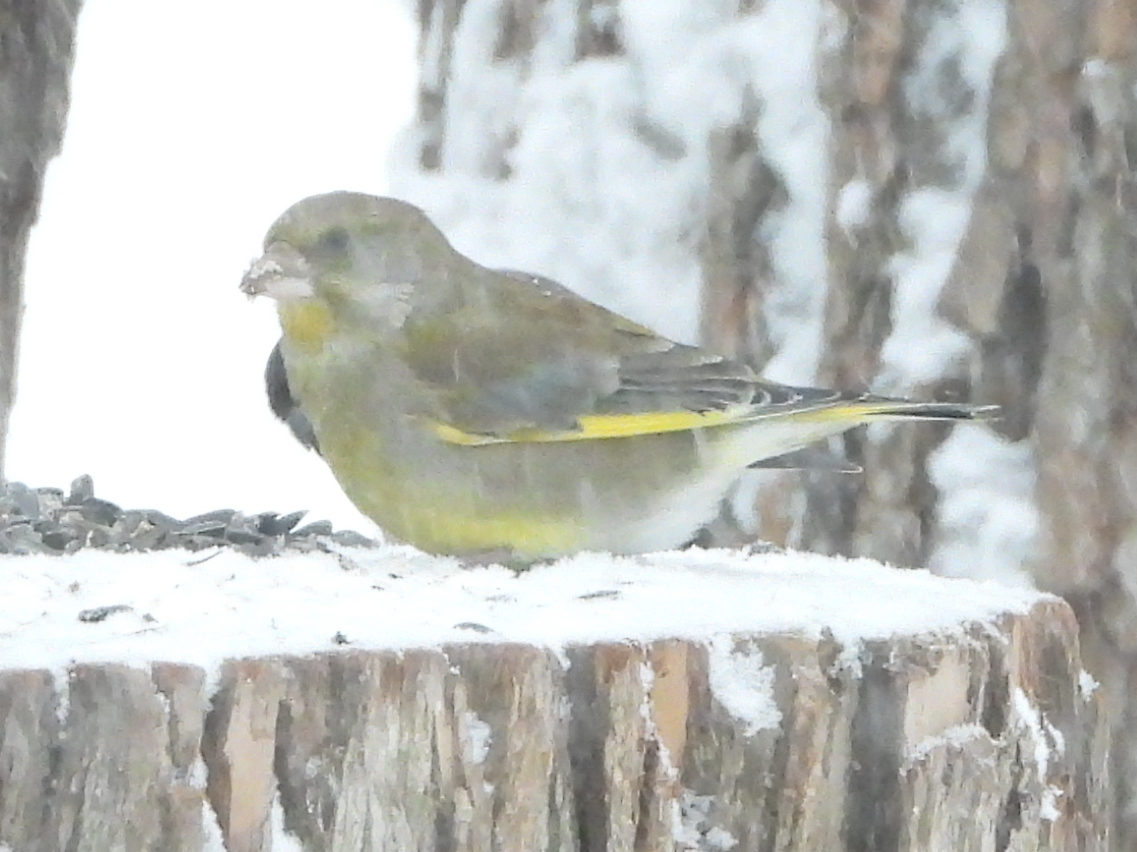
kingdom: Plantae
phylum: Tracheophyta
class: Liliopsida
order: Poales
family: Poaceae
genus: Chloris
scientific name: Chloris chloris
